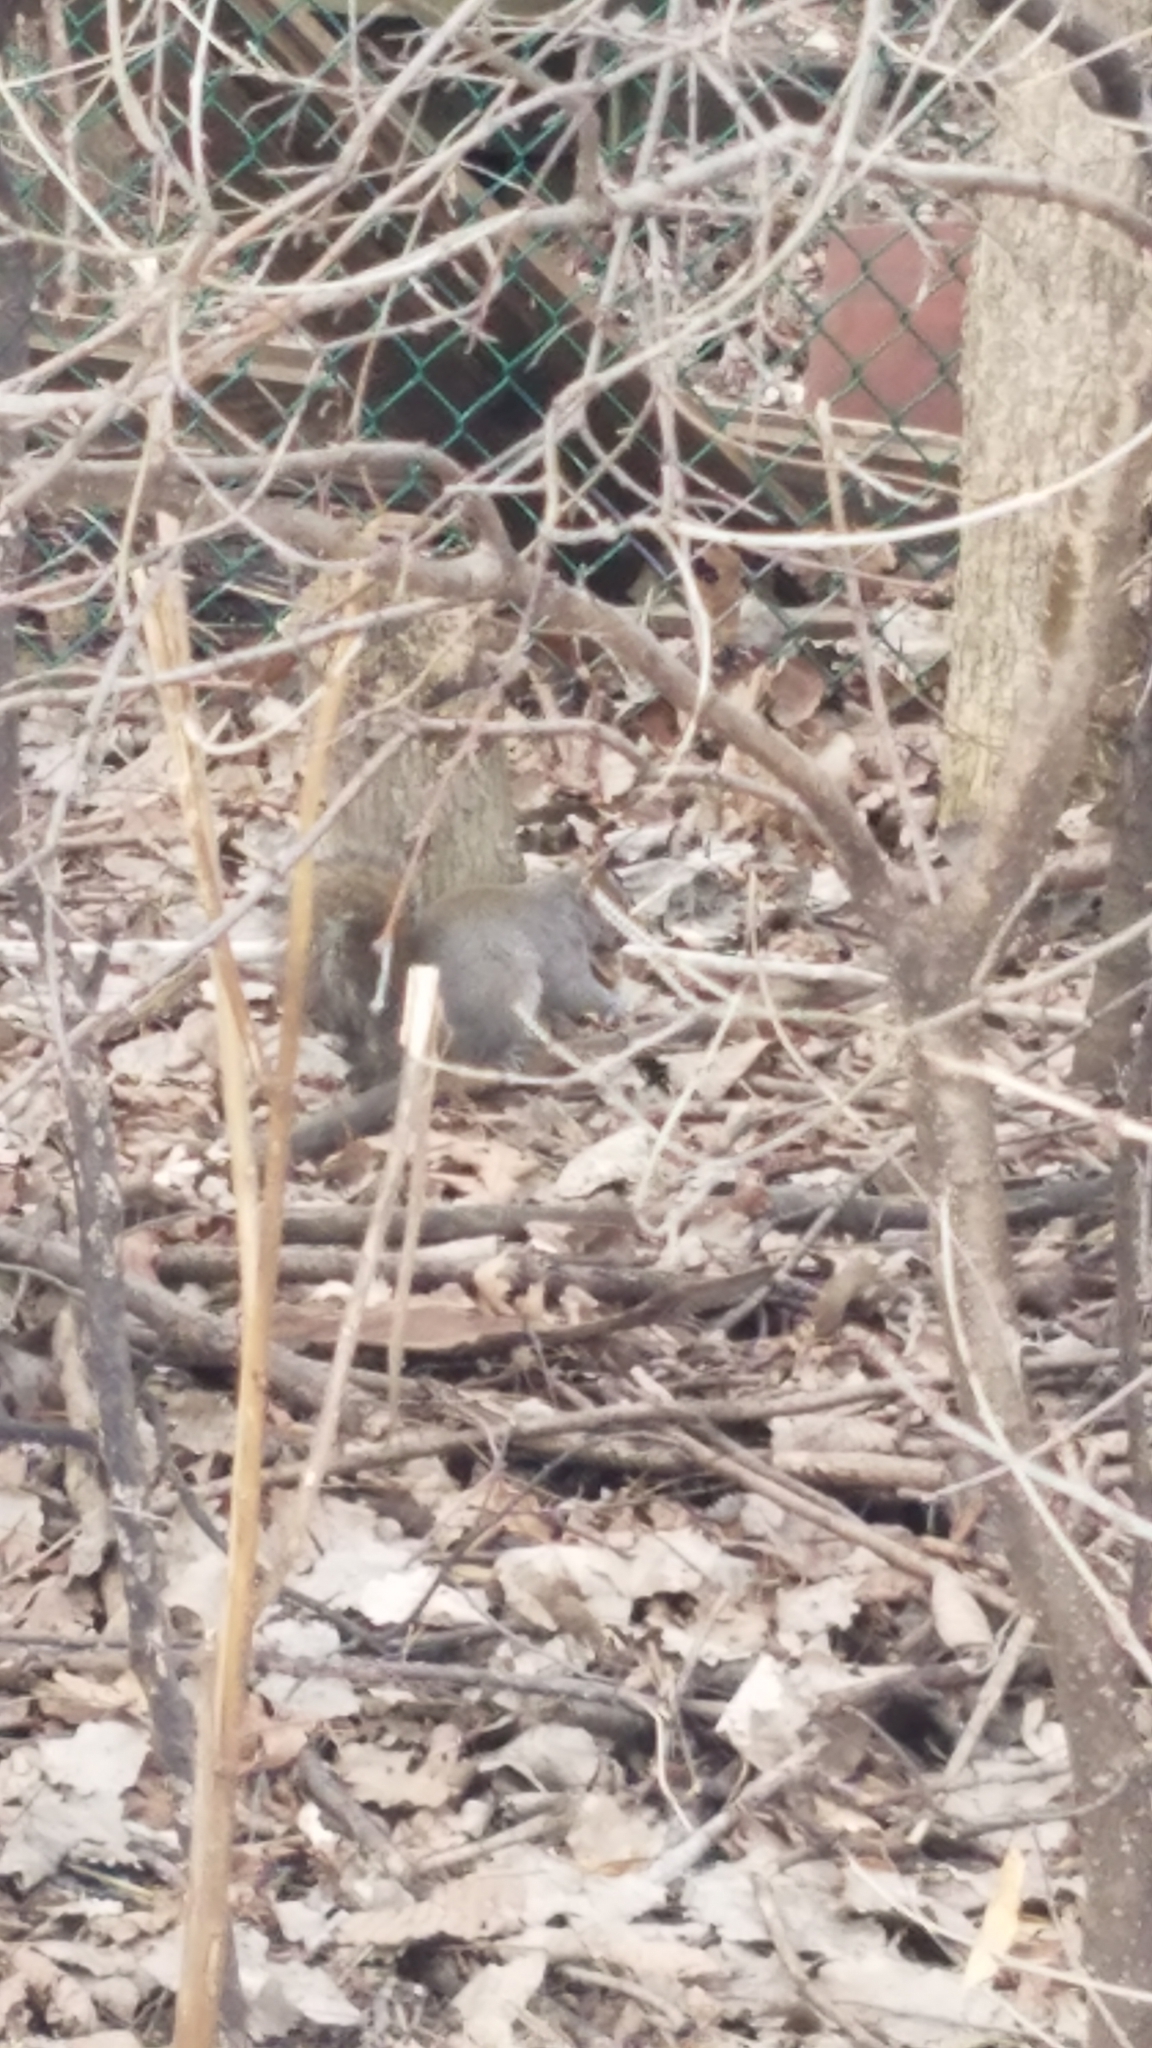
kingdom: Animalia
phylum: Chordata
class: Mammalia
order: Rodentia
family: Sciuridae
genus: Sciurus
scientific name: Sciurus carolinensis
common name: Eastern gray squirrel
